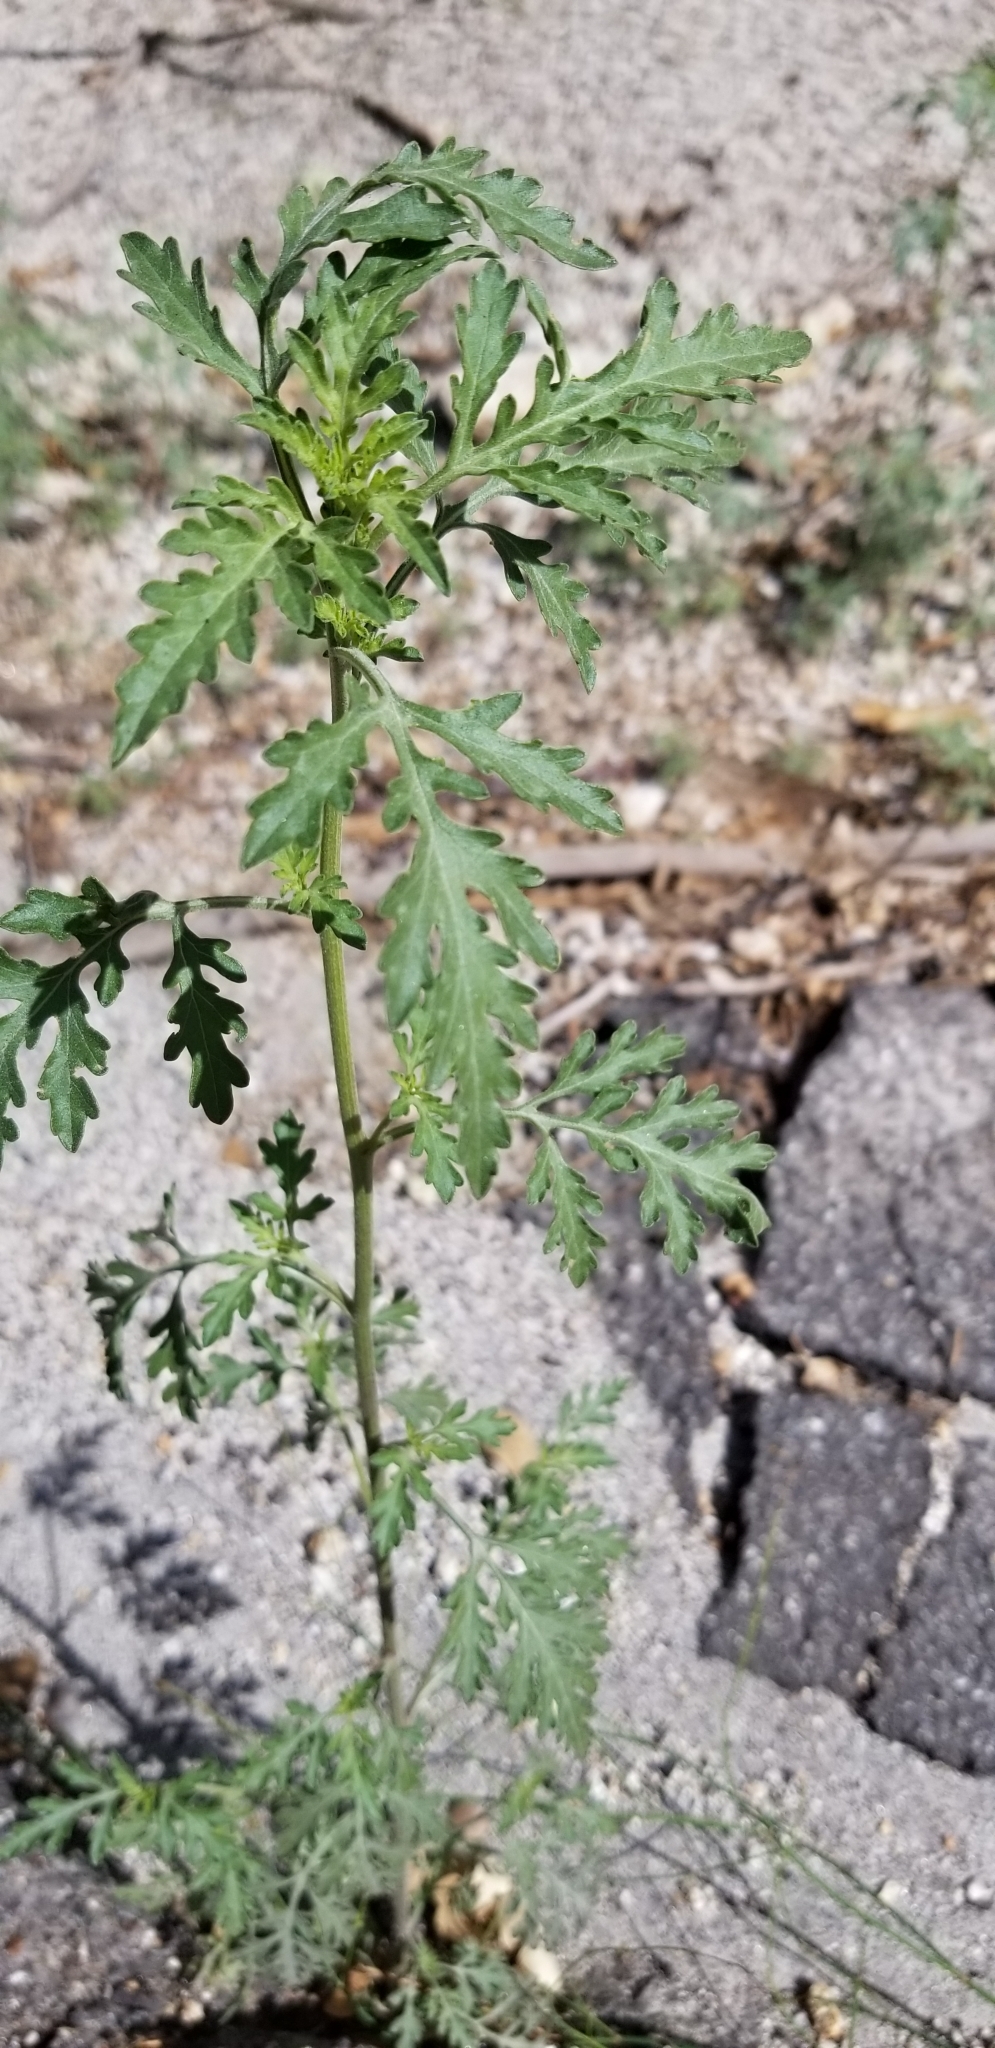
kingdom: Plantae
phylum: Tracheophyta
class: Magnoliopsida
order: Asterales
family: Asteraceae
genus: Ambrosia
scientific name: Ambrosia psilostachya
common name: Perennial ragweed
